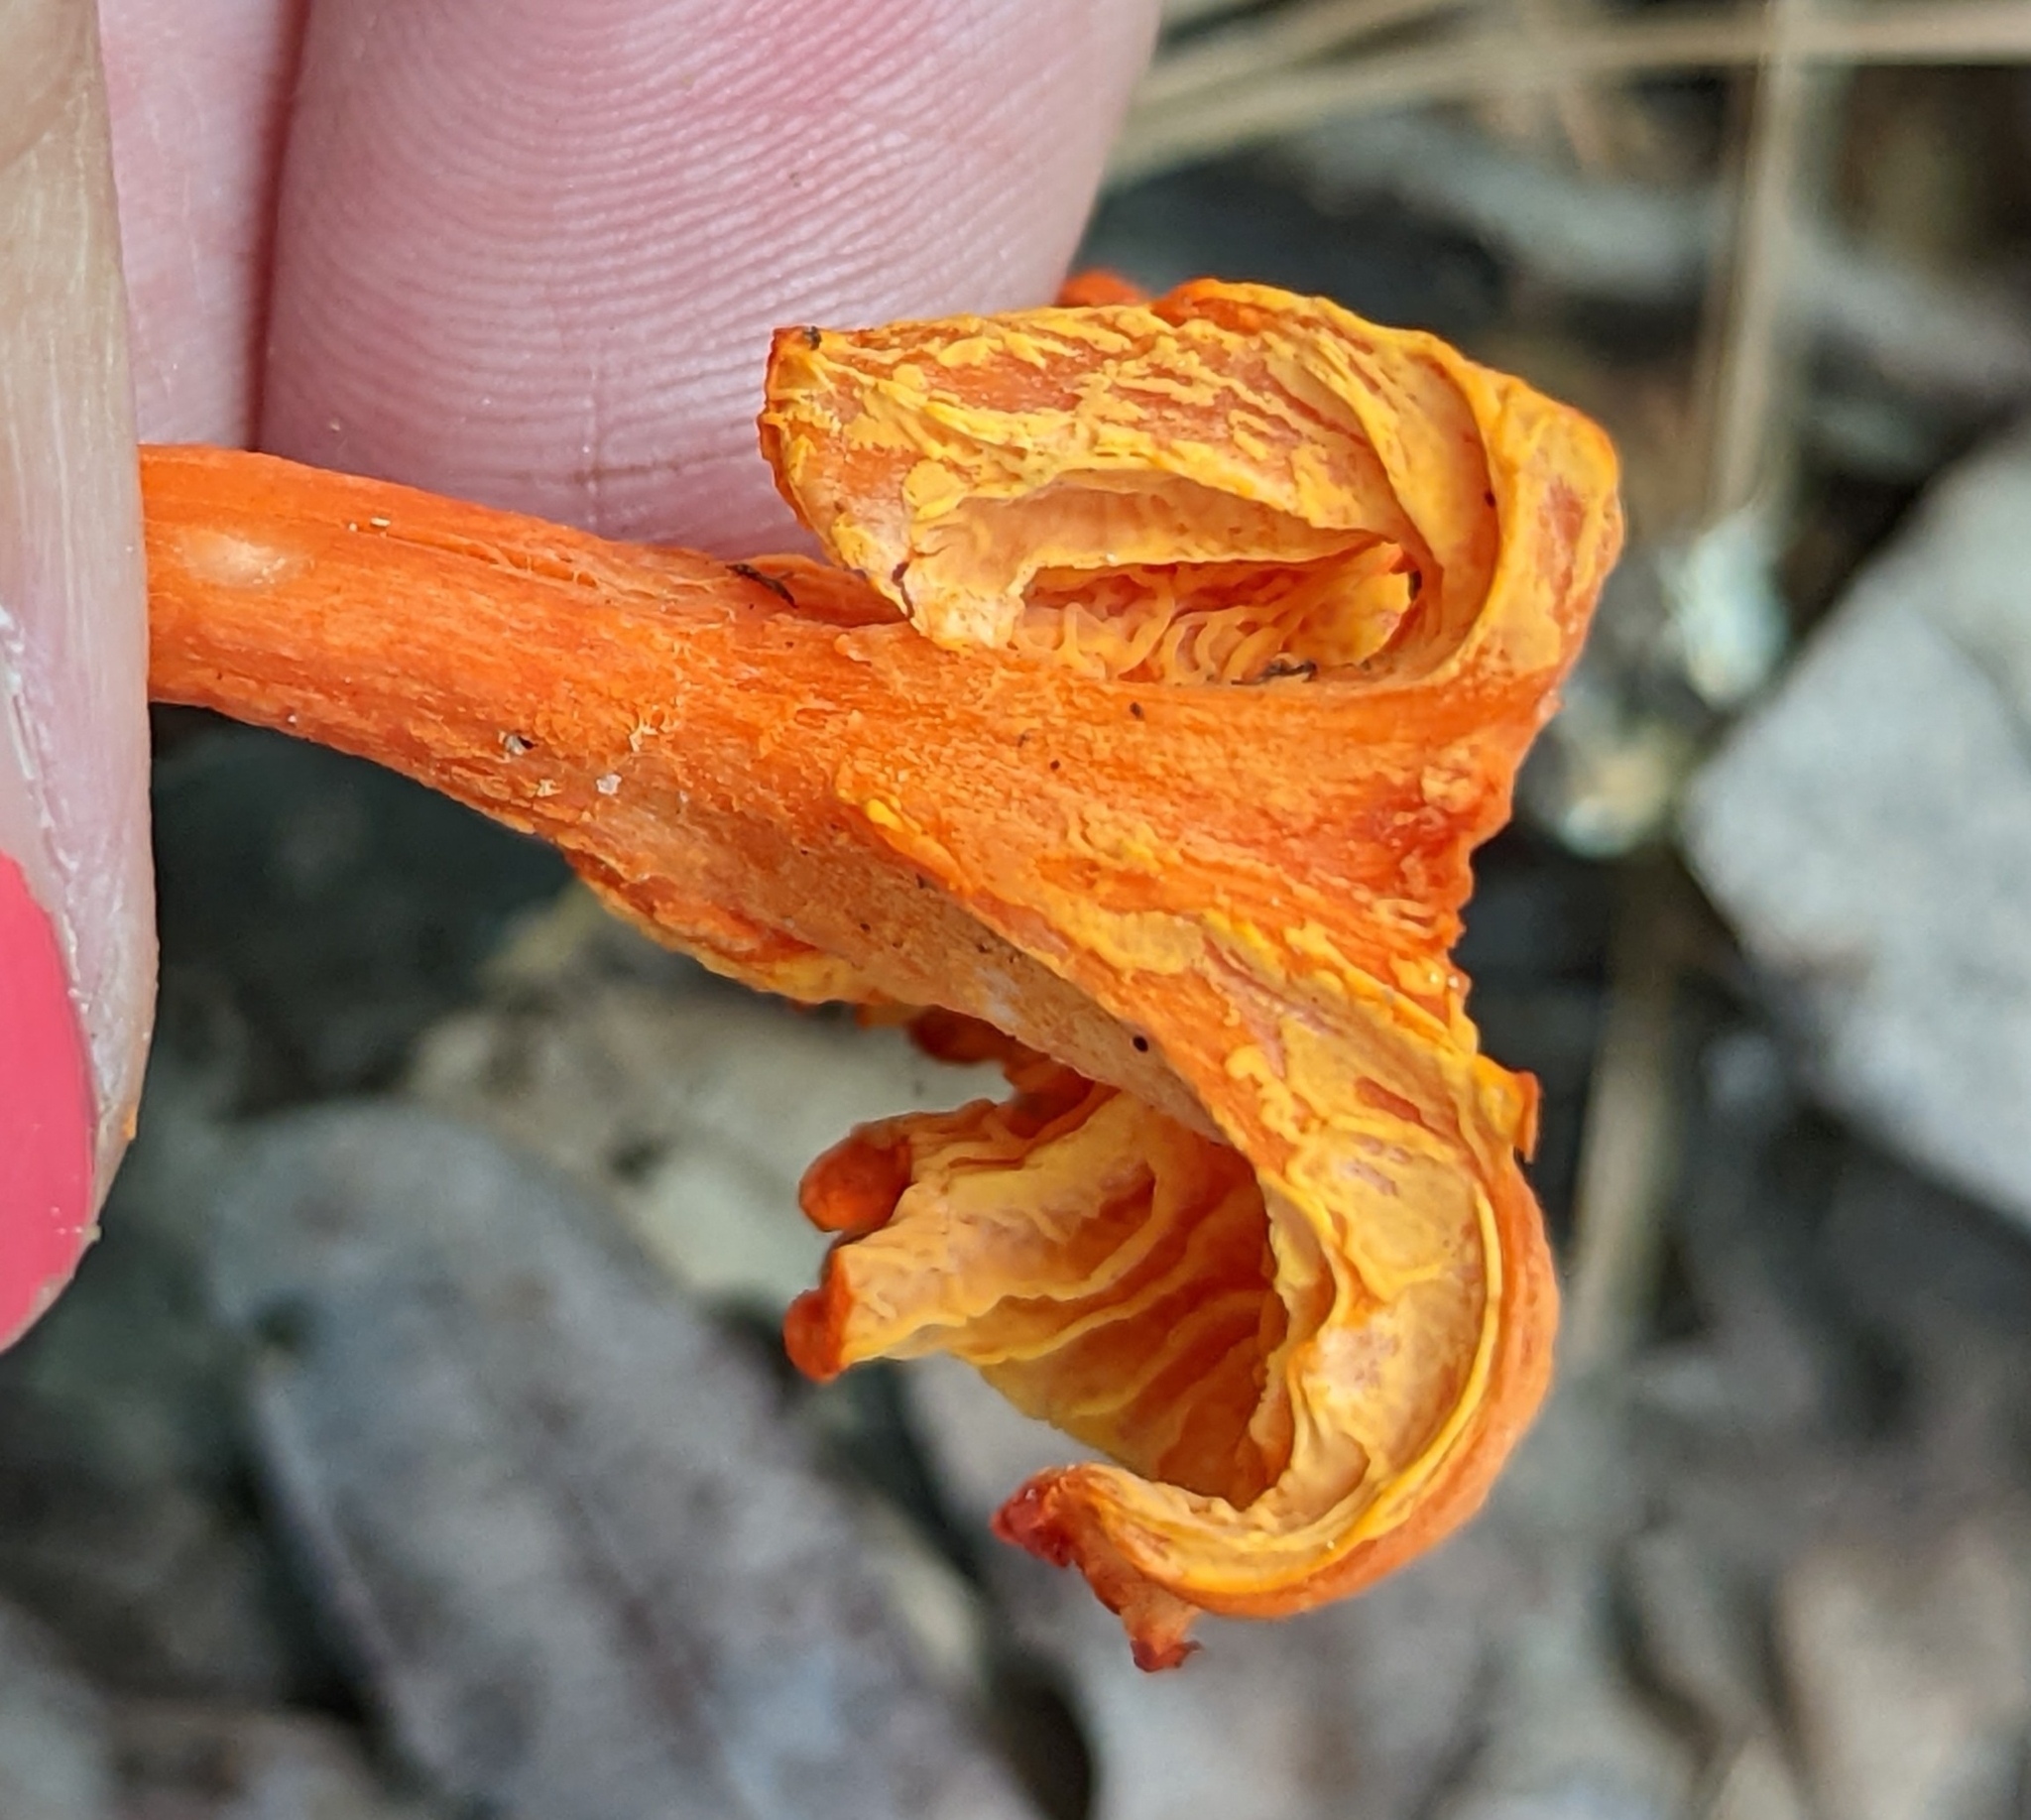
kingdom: Fungi
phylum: Basidiomycota
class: Agaricomycetes
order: Cantharellales
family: Hydnaceae
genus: Cantharellus
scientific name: Cantharellus cinnabarinus
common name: Cinnabar chanterelle
